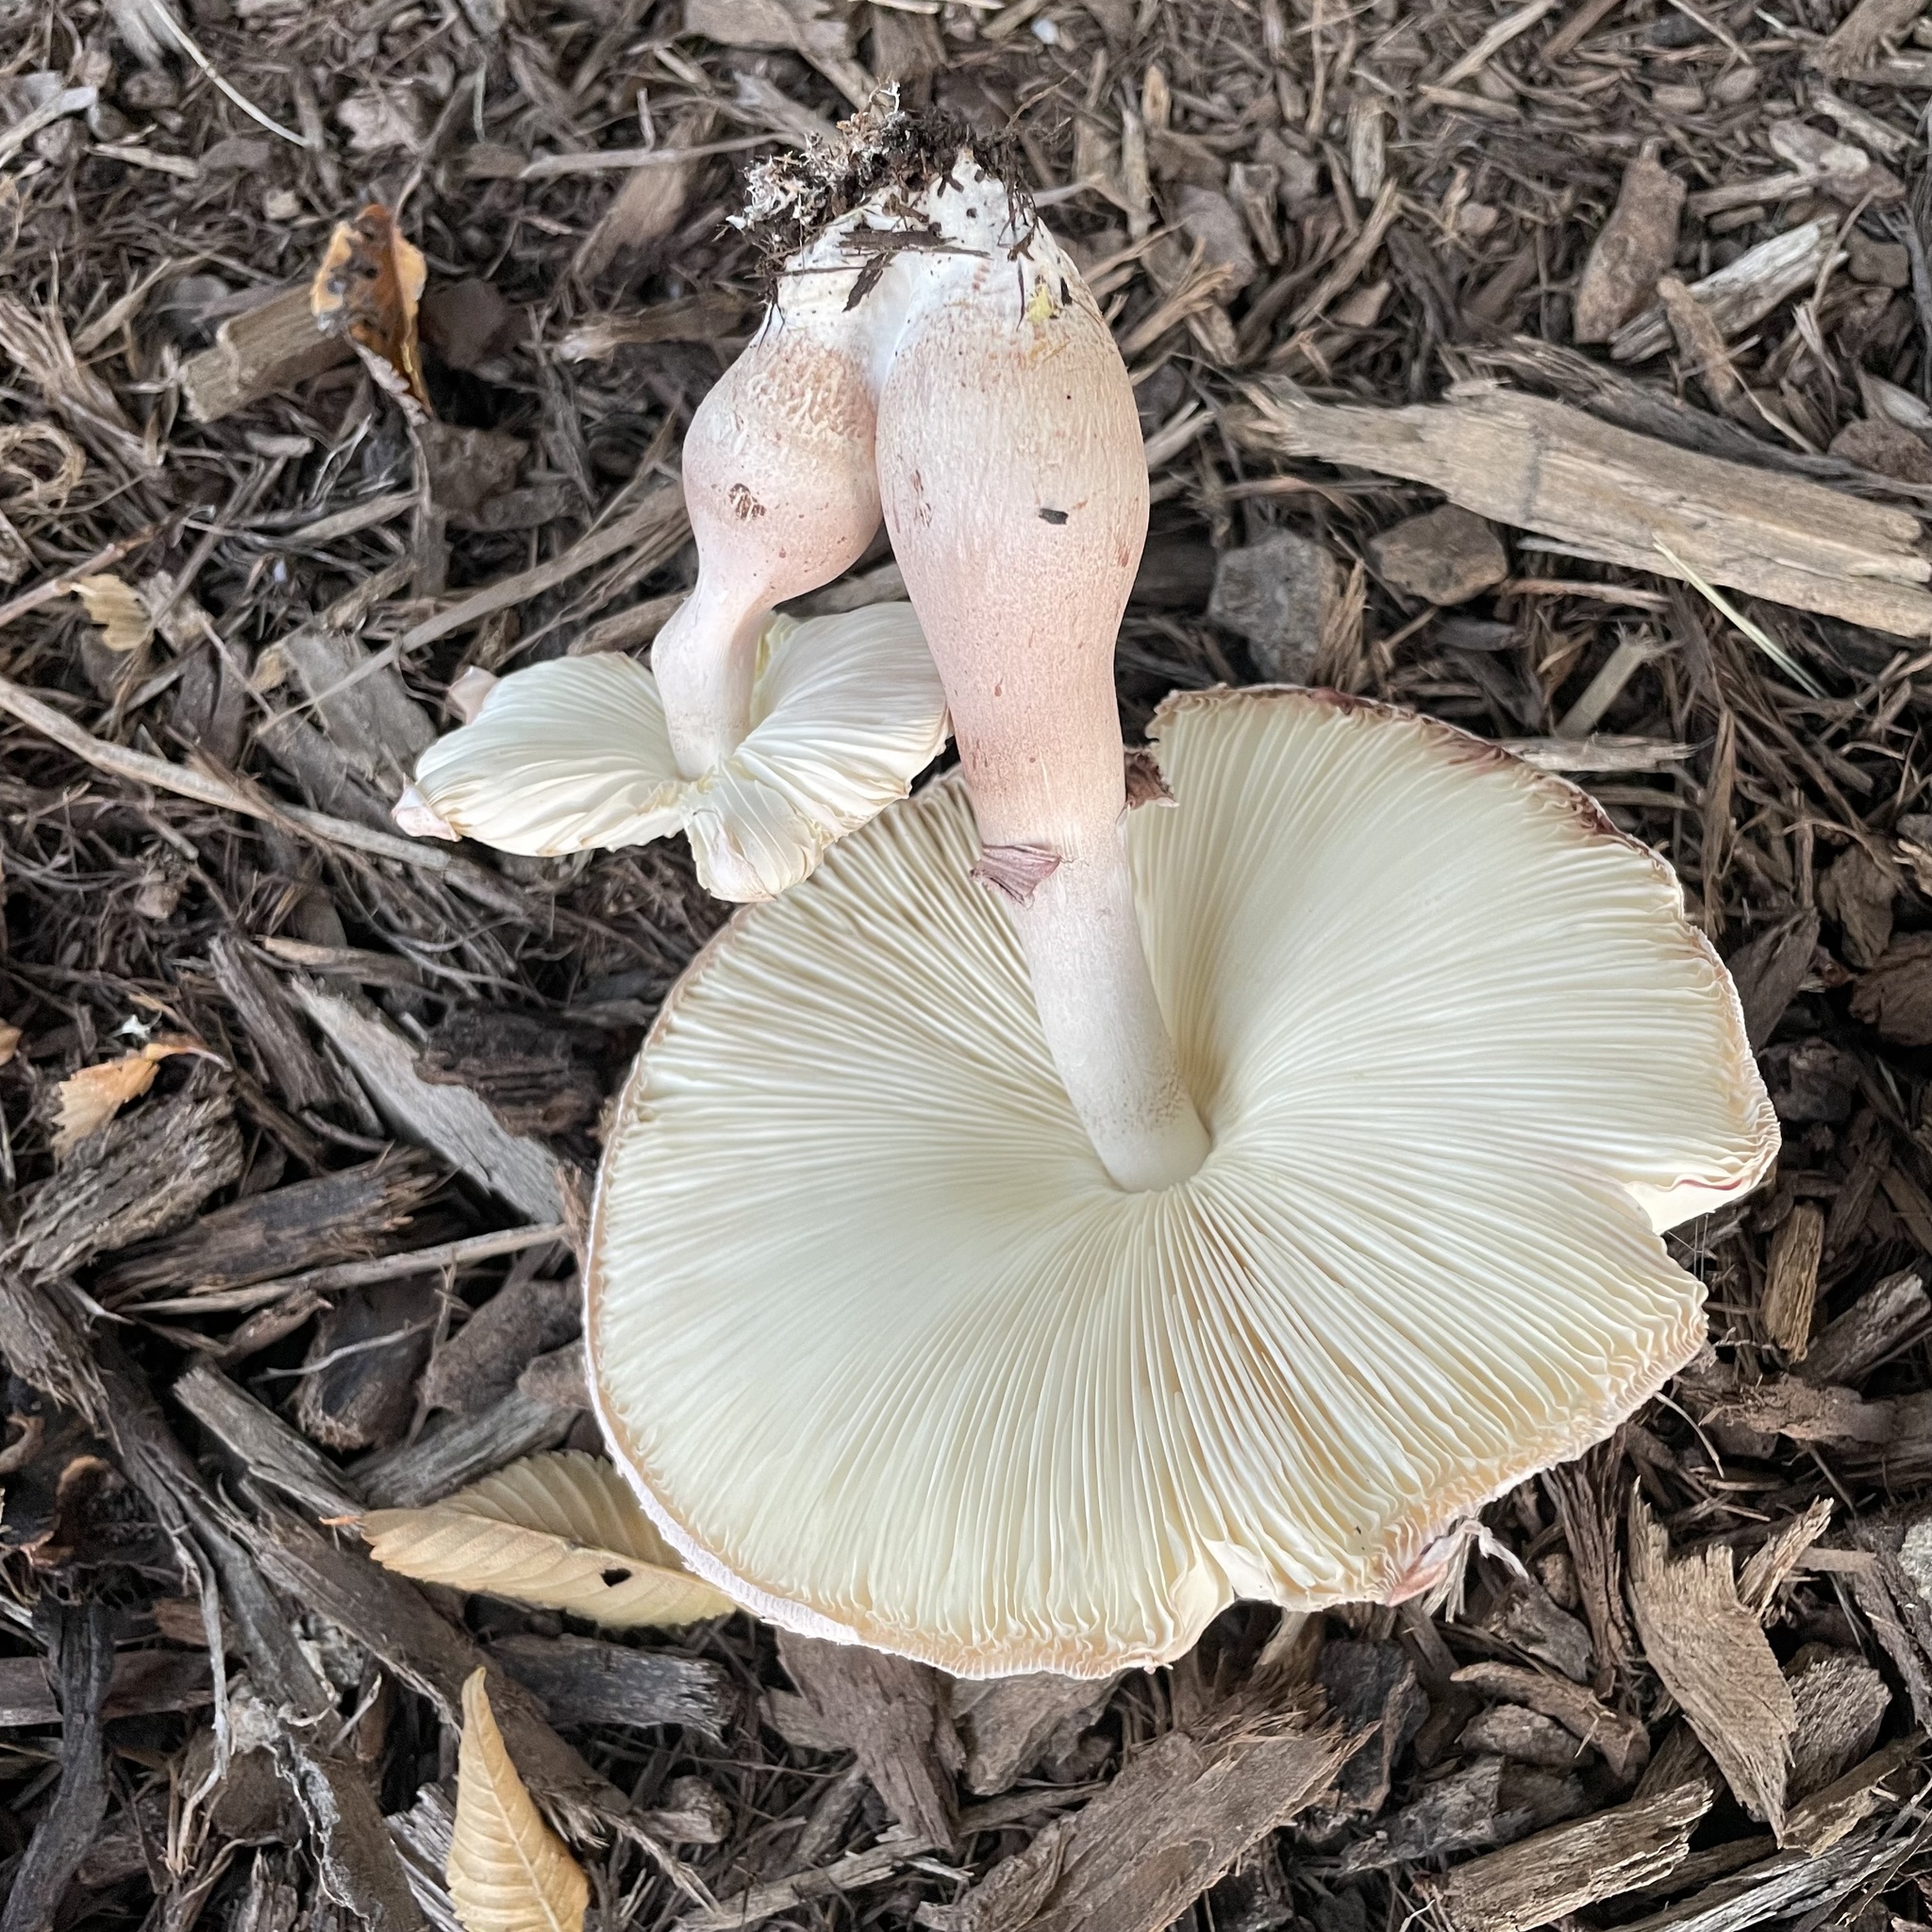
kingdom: Fungi
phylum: Basidiomycota
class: Agaricomycetes
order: Agaricales
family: Agaricaceae
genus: Leucoagaricus
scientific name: Leucoagaricus americanus
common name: Reddening lepiota
